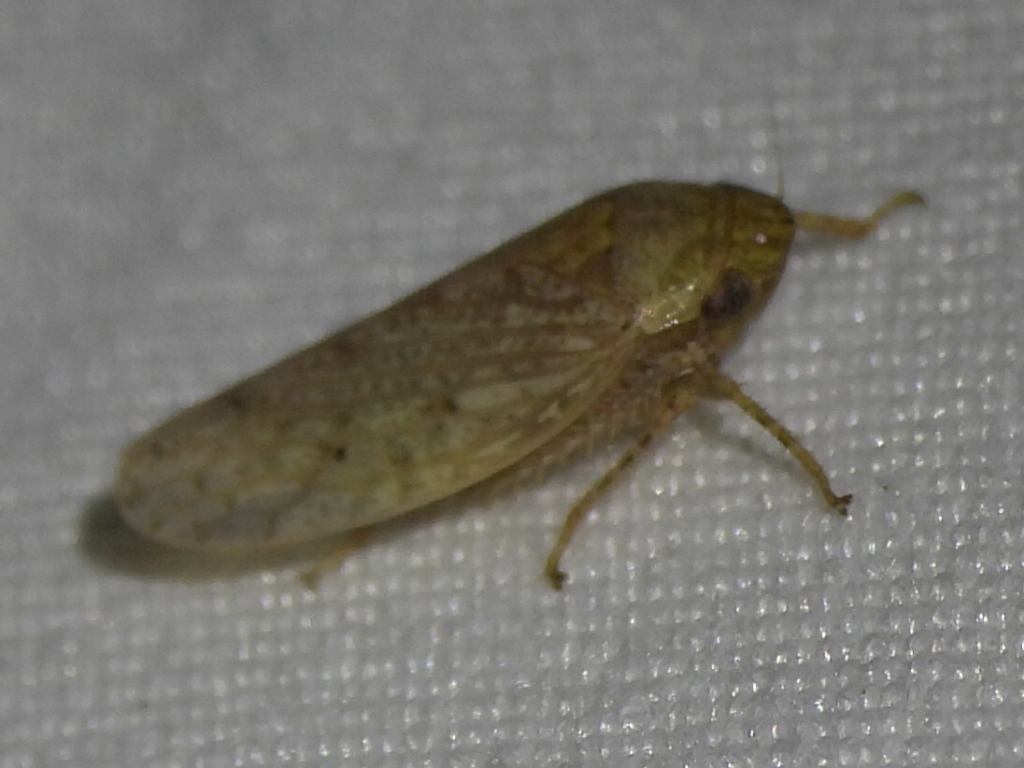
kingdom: Animalia
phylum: Arthropoda
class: Insecta
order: Hemiptera
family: Cicadellidae
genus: Curtara
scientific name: Curtara insularis
